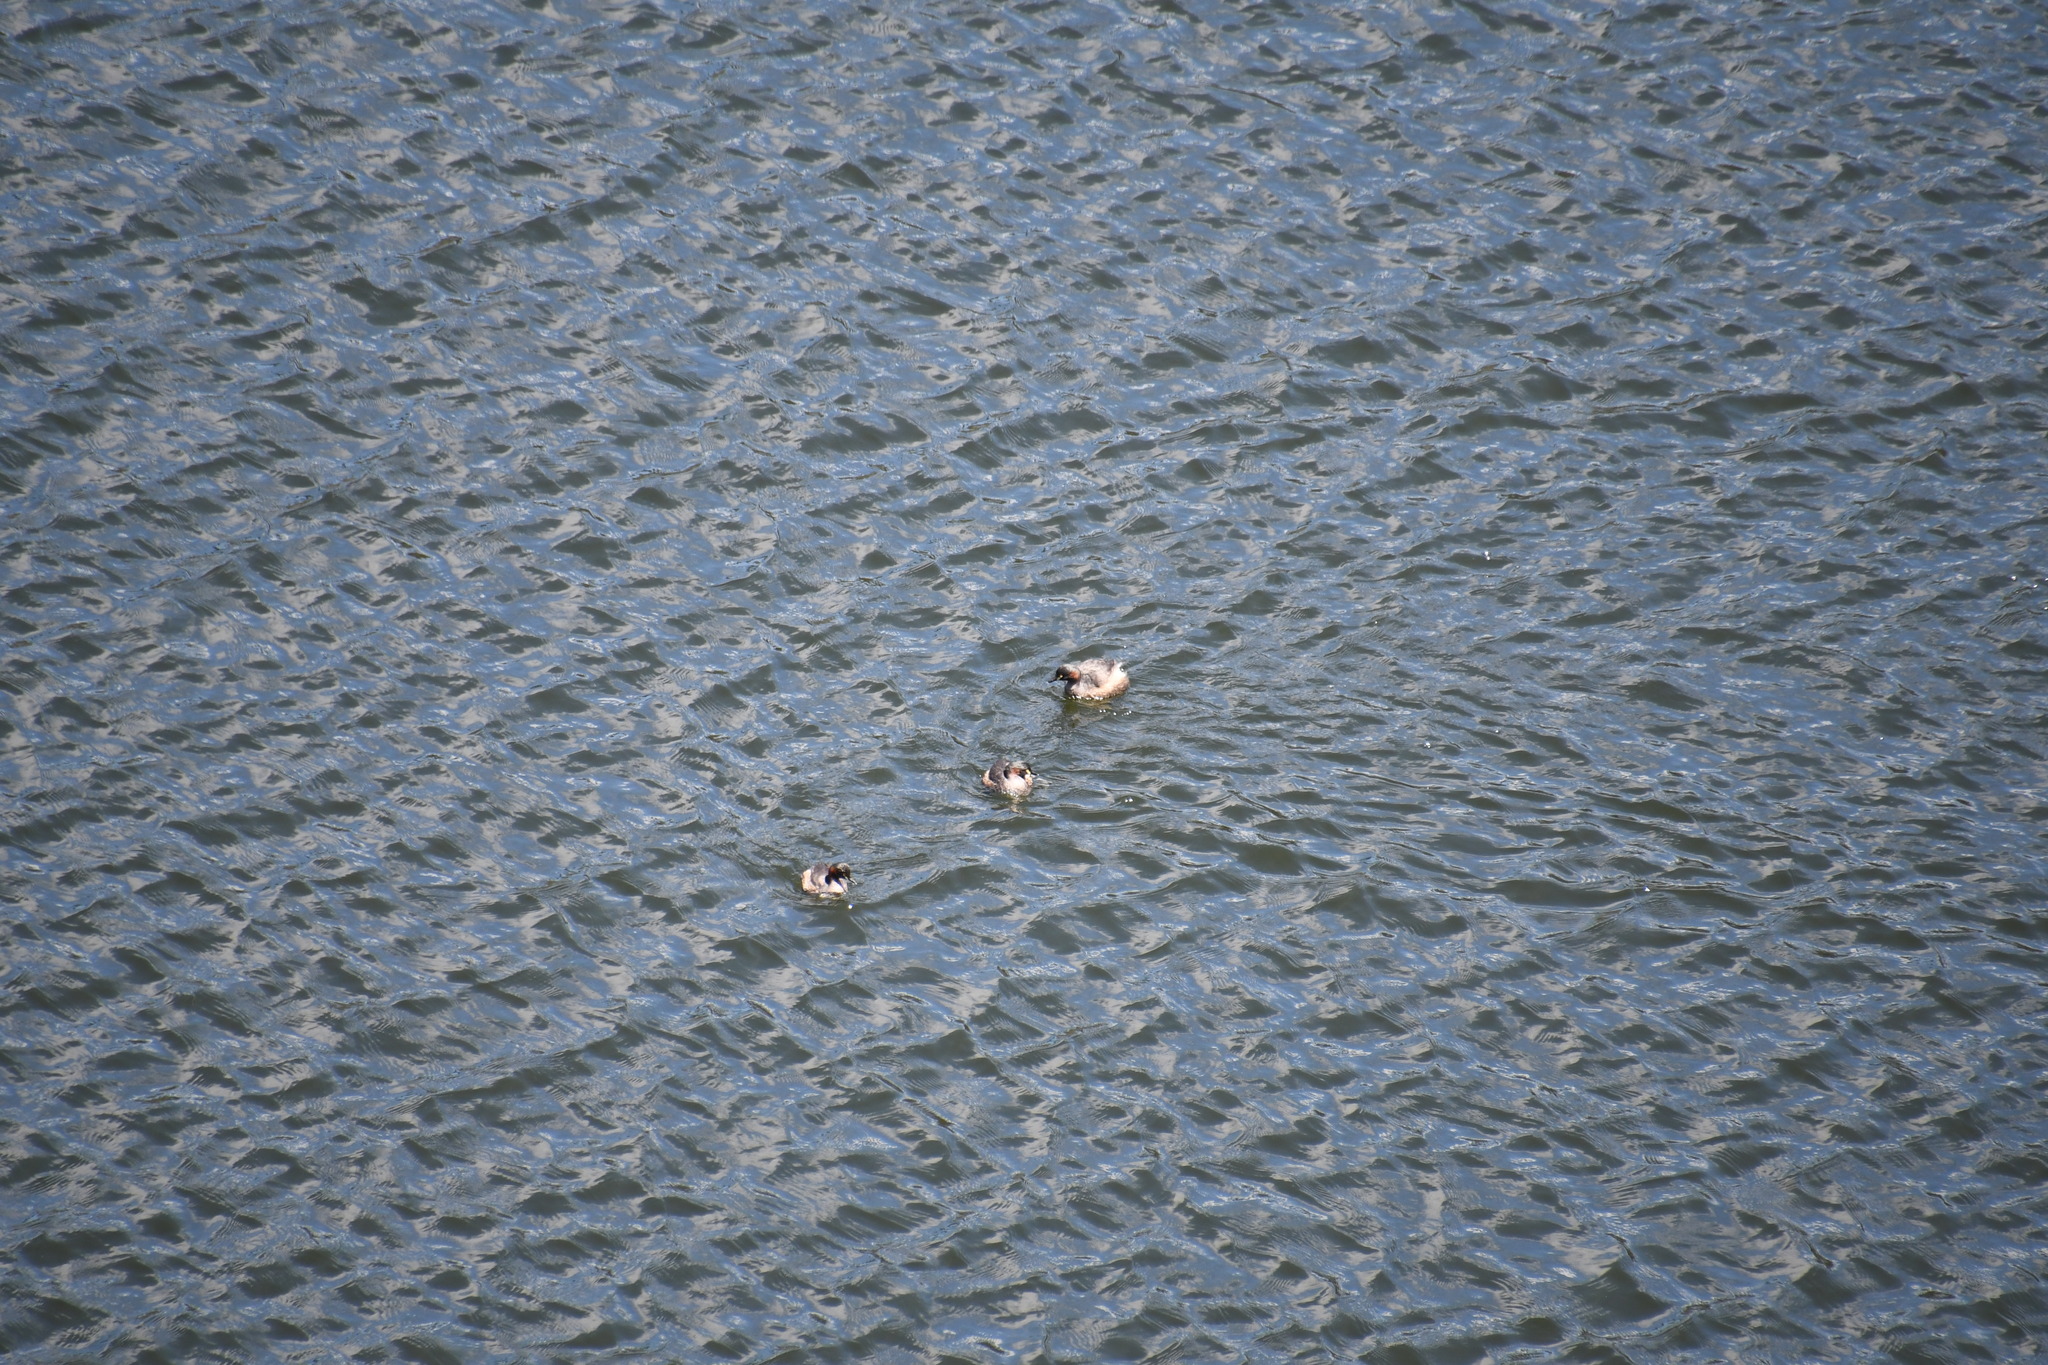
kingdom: Animalia
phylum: Chordata
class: Aves
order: Podicipediformes
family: Podicipedidae
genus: Tachybaptus
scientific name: Tachybaptus novaehollandiae
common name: Australasian grebe
